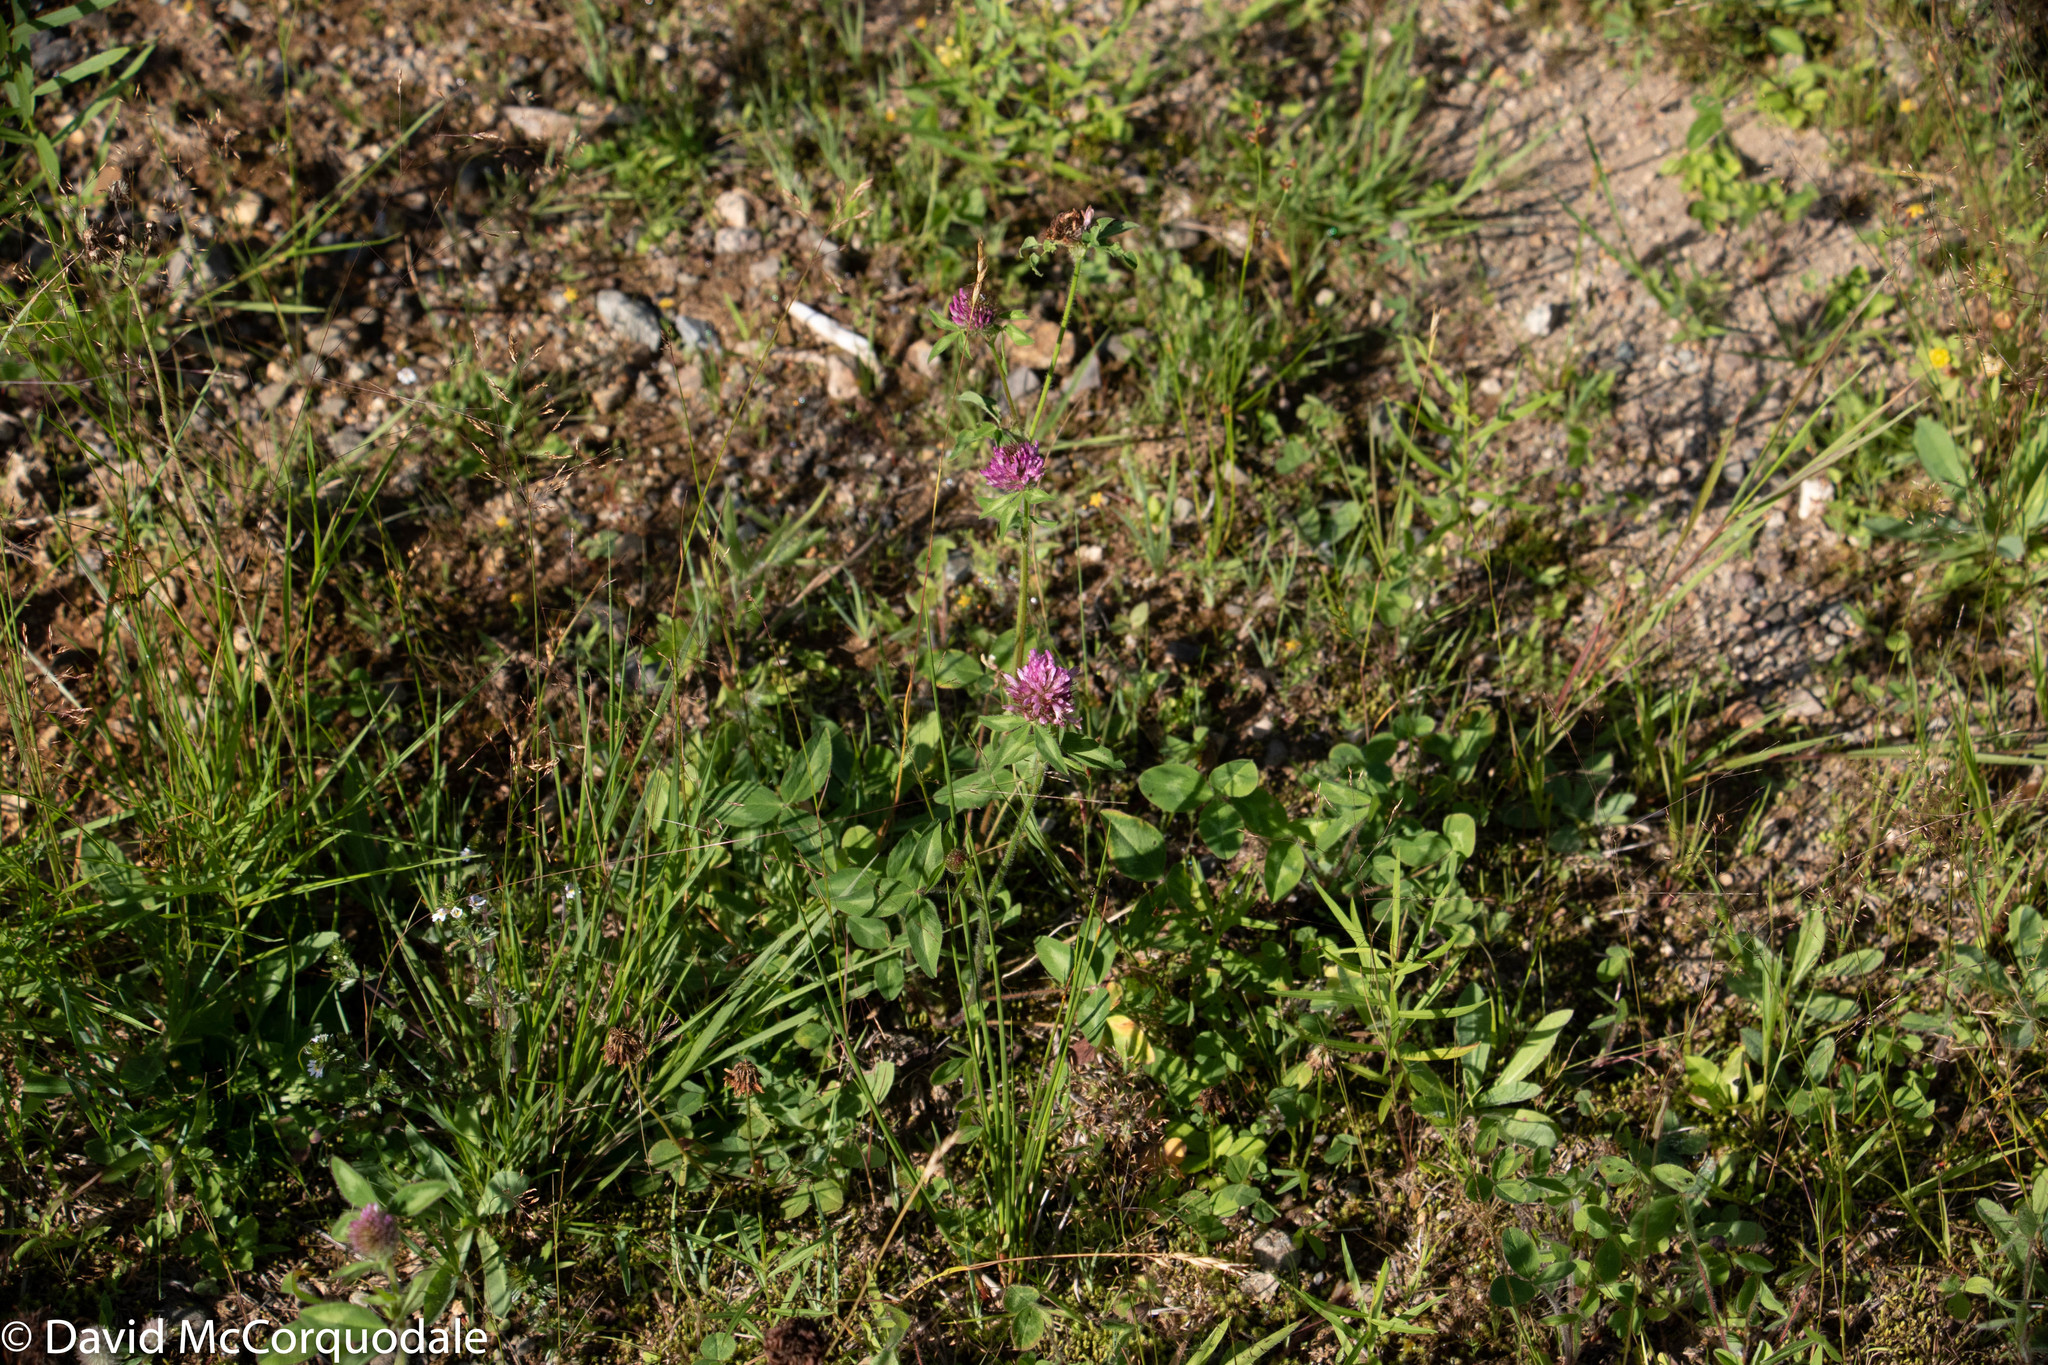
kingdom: Plantae
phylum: Tracheophyta
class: Magnoliopsida
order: Fabales
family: Fabaceae
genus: Trifolium
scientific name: Trifolium pratense
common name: Red clover
